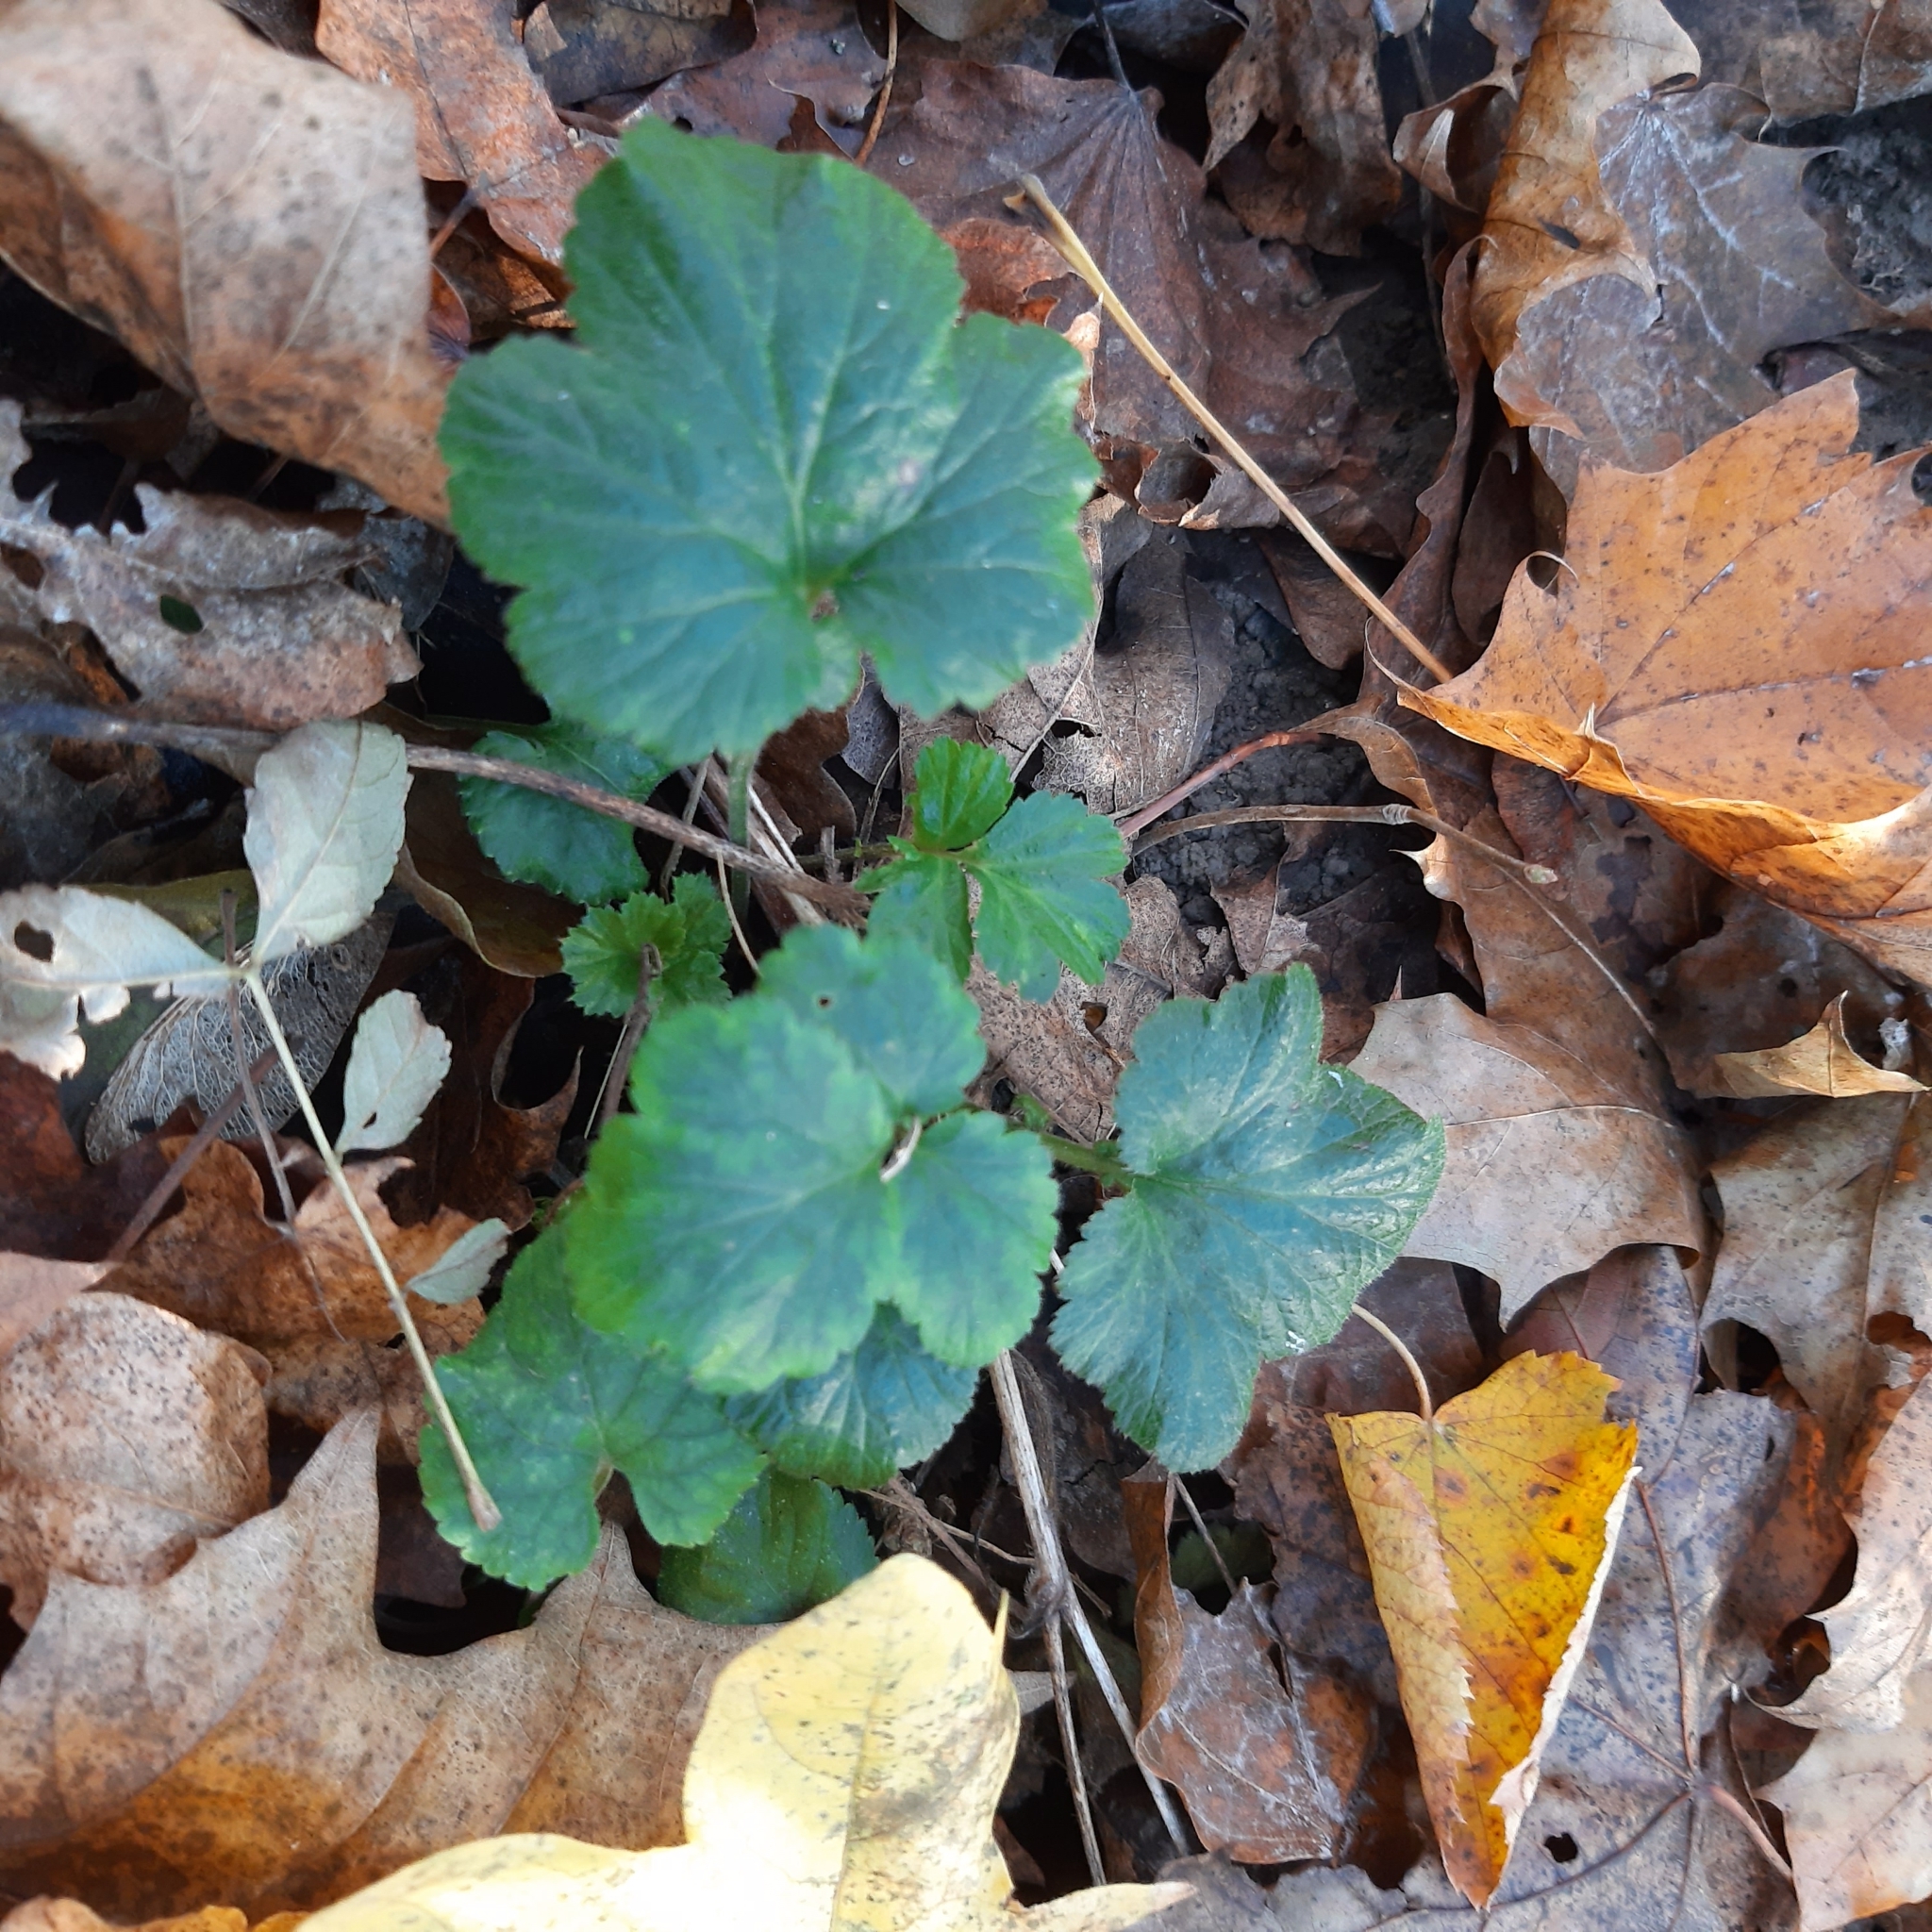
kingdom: Plantae
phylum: Tracheophyta
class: Magnoliopsida
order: Rosales
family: Rosaceae
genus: Geum
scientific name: Geum urbanum
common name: Wood avens
